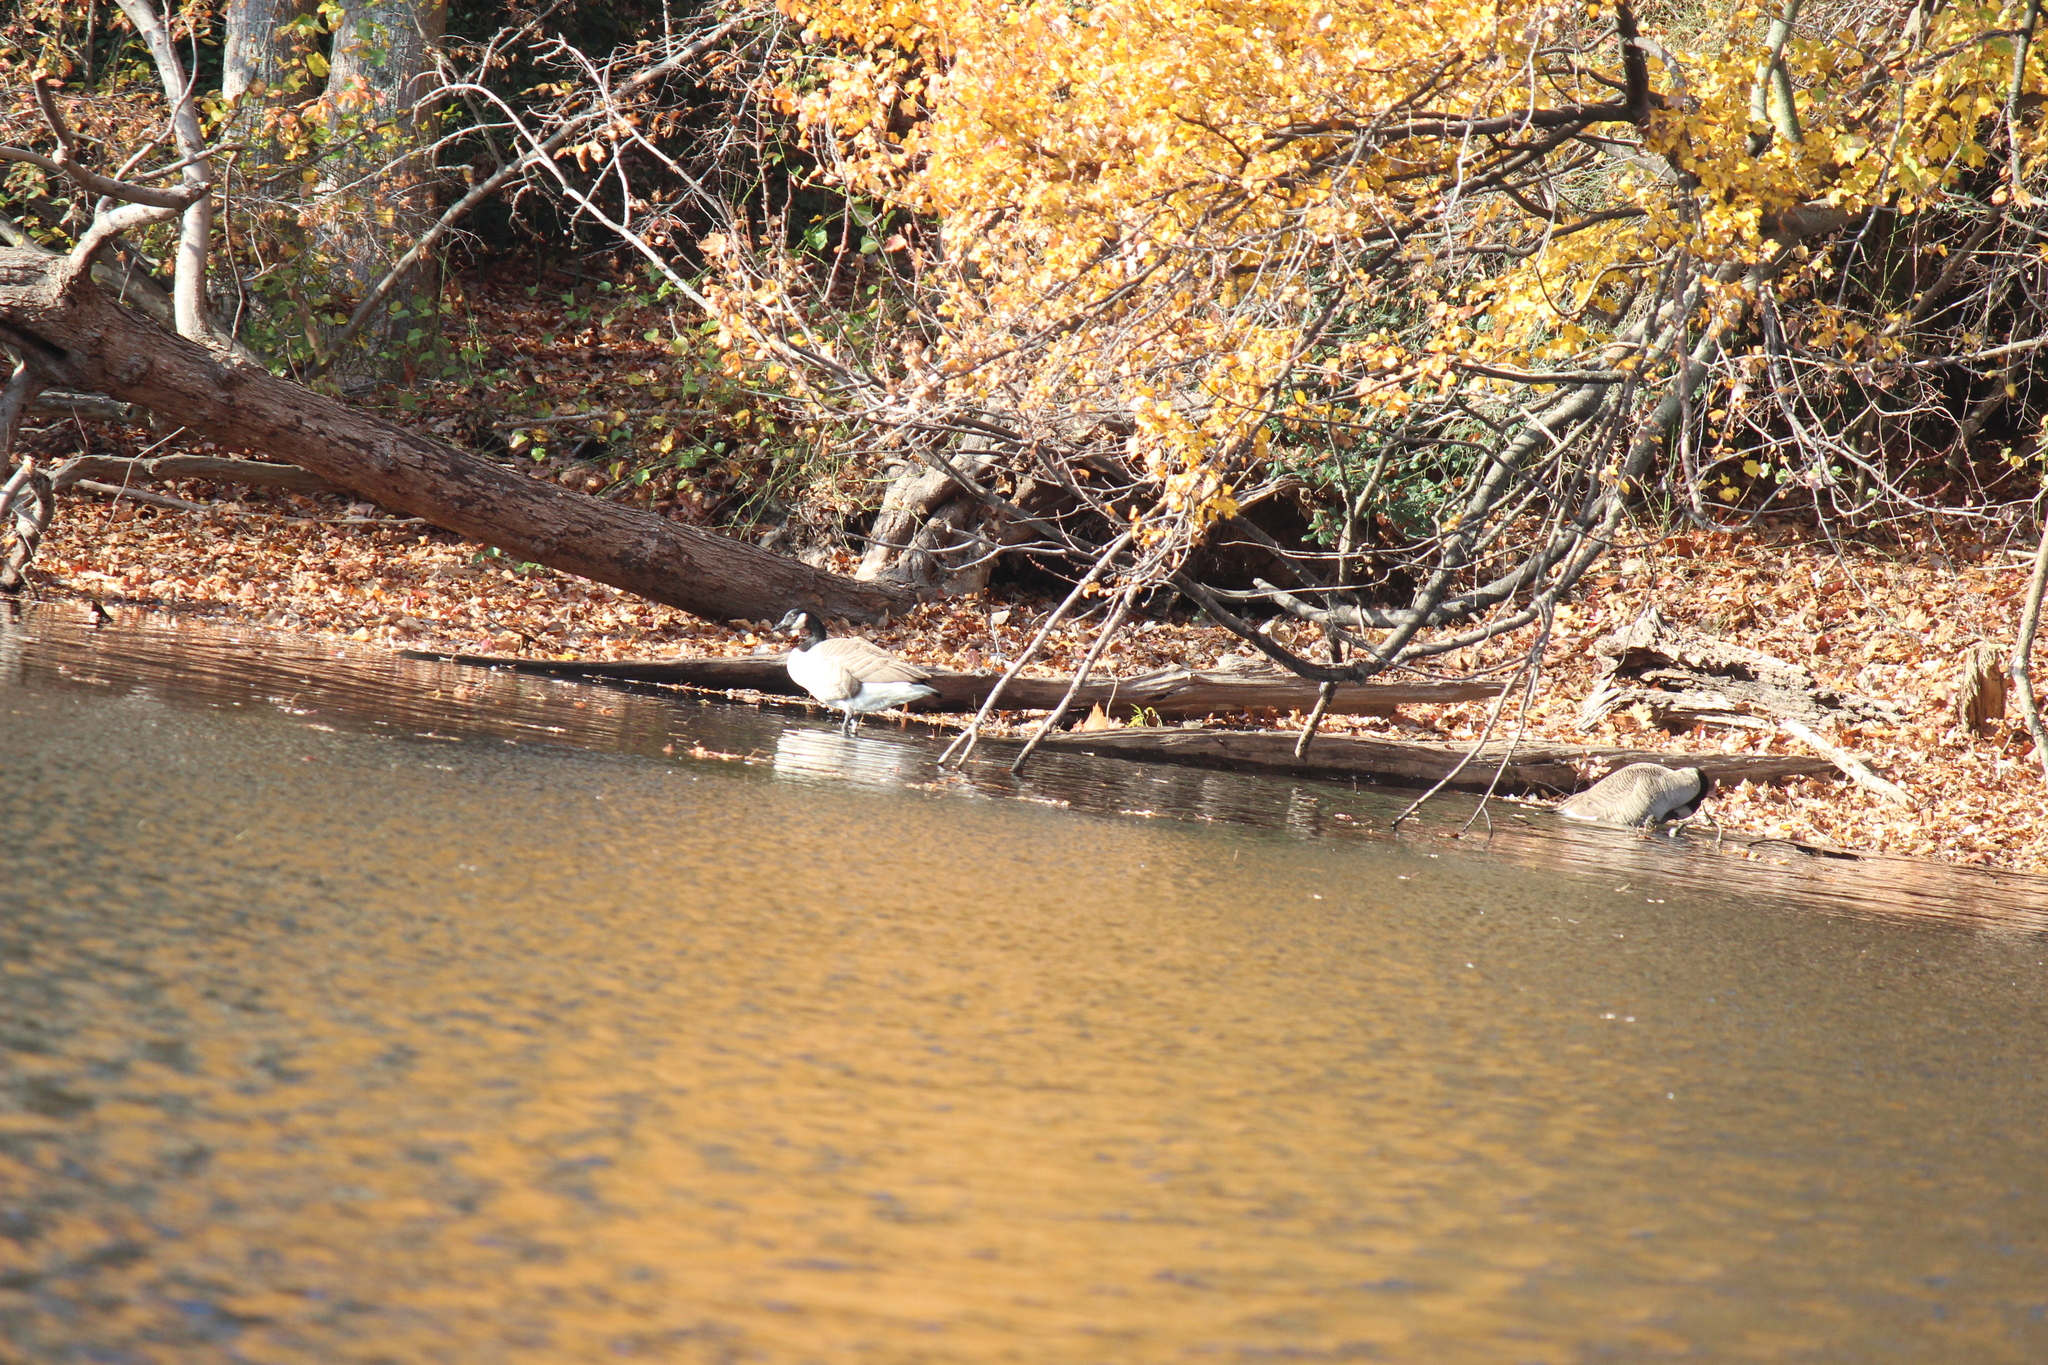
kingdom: Animalia
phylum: Chordata
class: Aves
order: Anseriformes
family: Anatidae
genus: Branta
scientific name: Branta canadensis
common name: Canada goose
